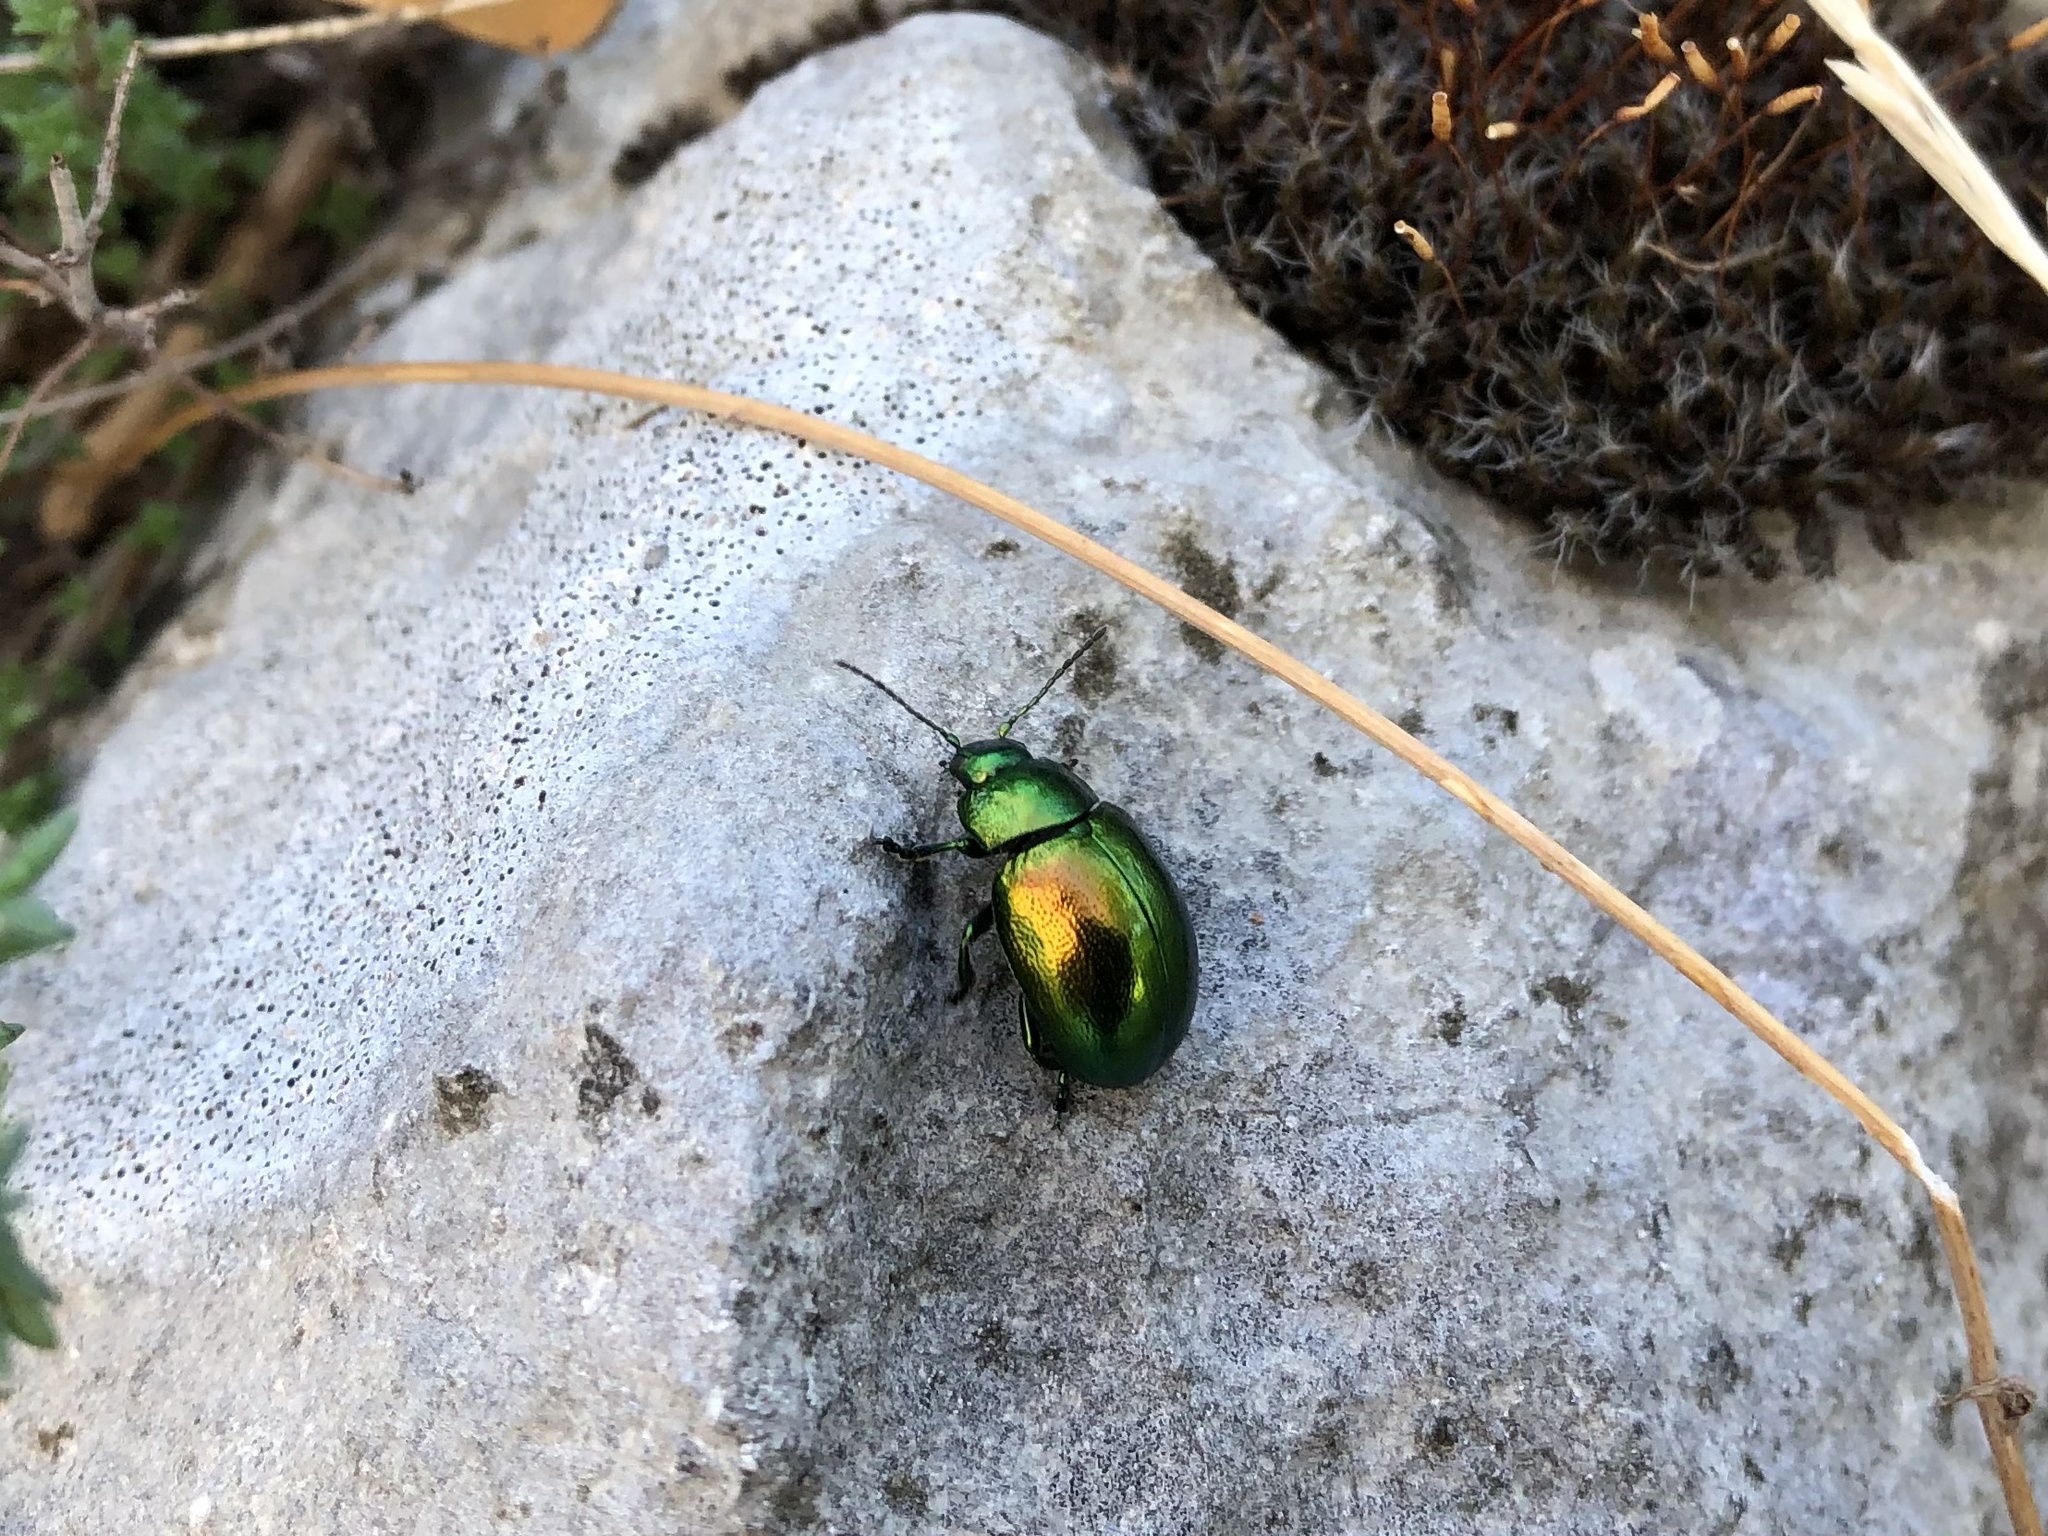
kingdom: Animalia
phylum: Arthropoda
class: Insecta
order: Coleoptera
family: Chrysomelidae
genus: Chrysolina
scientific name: Chrysolina herbacea
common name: Mint leaf beatle
